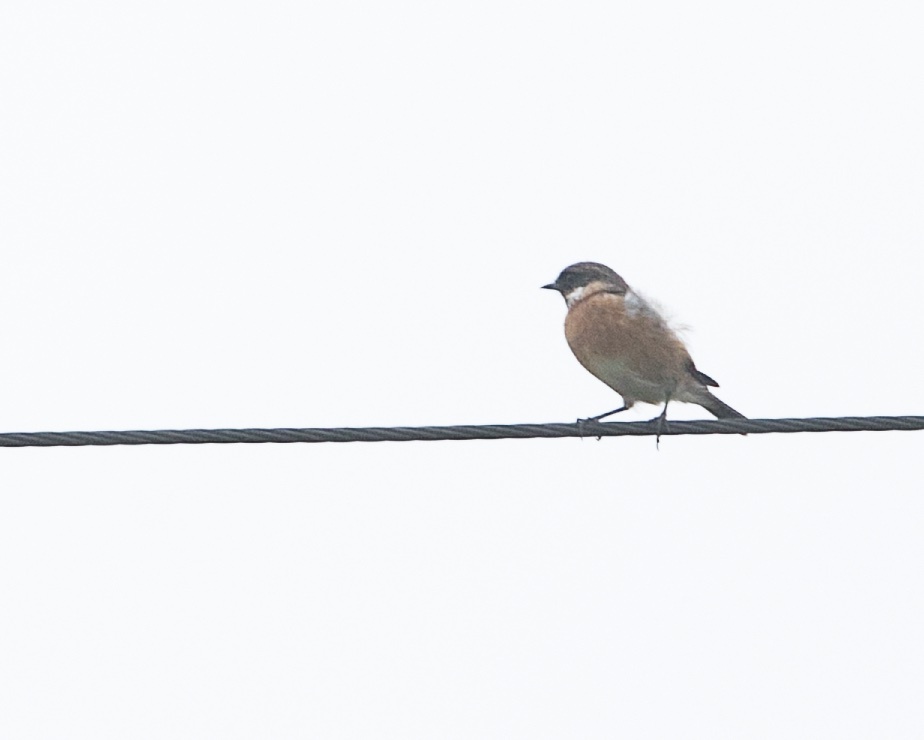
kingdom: Animalia
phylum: Chordata
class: Aves
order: Passeriformes
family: Muscicapidae
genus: Saxicola
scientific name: Saxicola rubicola
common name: European stonechat
